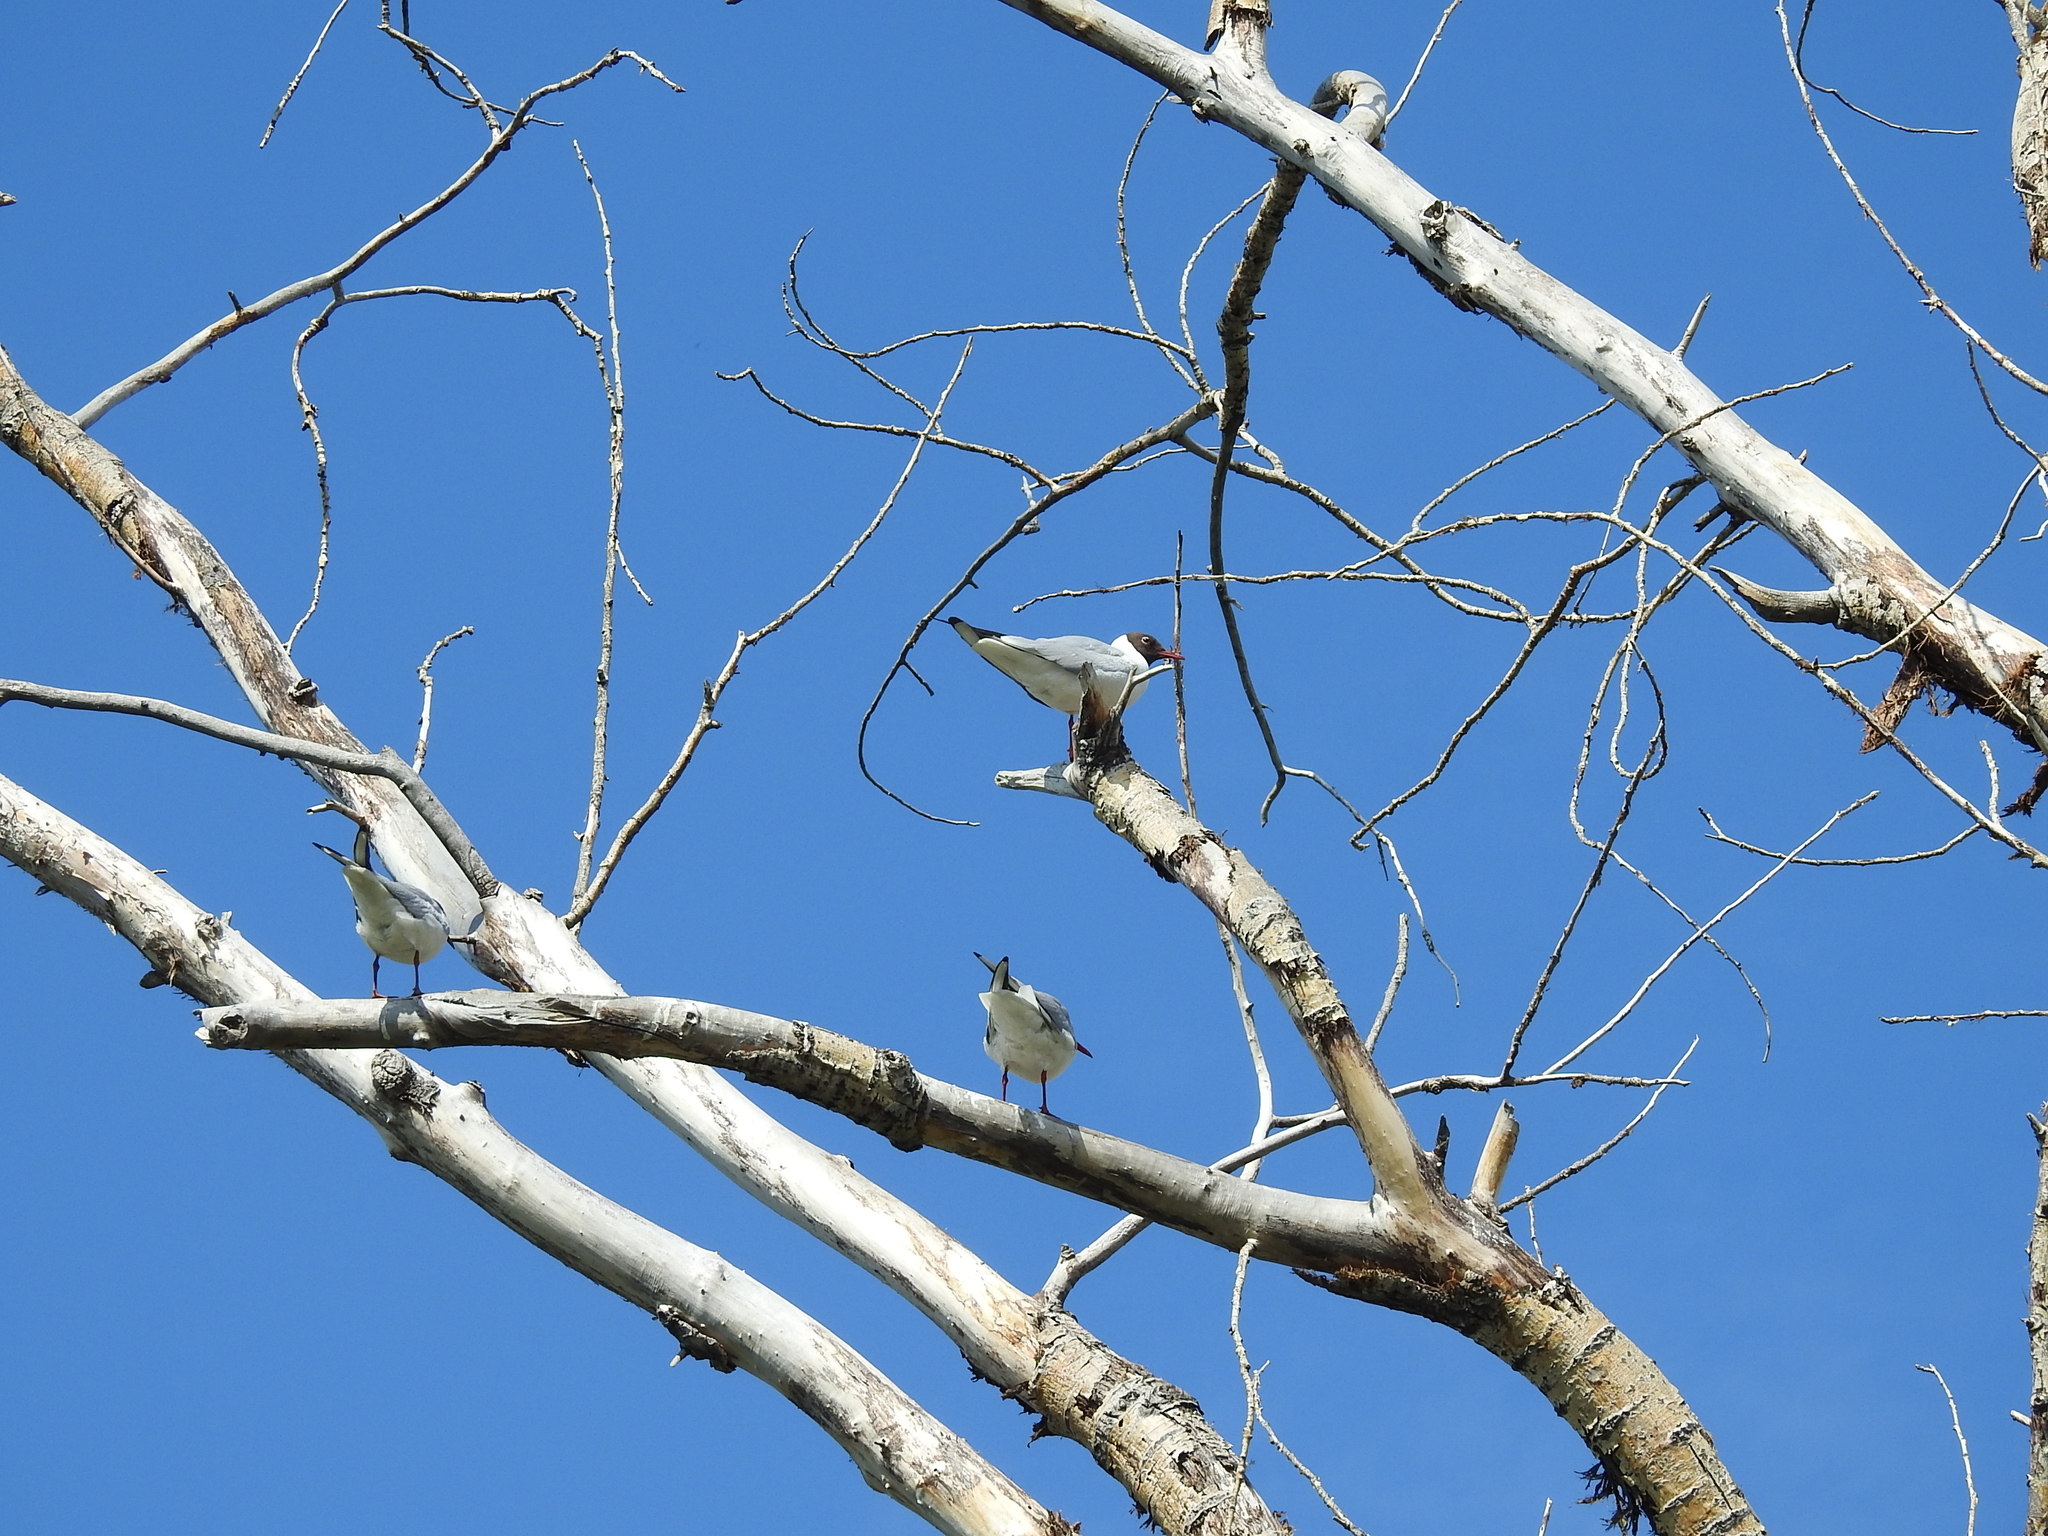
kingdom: Animalia
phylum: Chordata
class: Aves
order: Charadriiformes
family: Laridae
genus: Chroicocephalus
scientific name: Chroicocephalus ridibundus
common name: Black-headed gull
